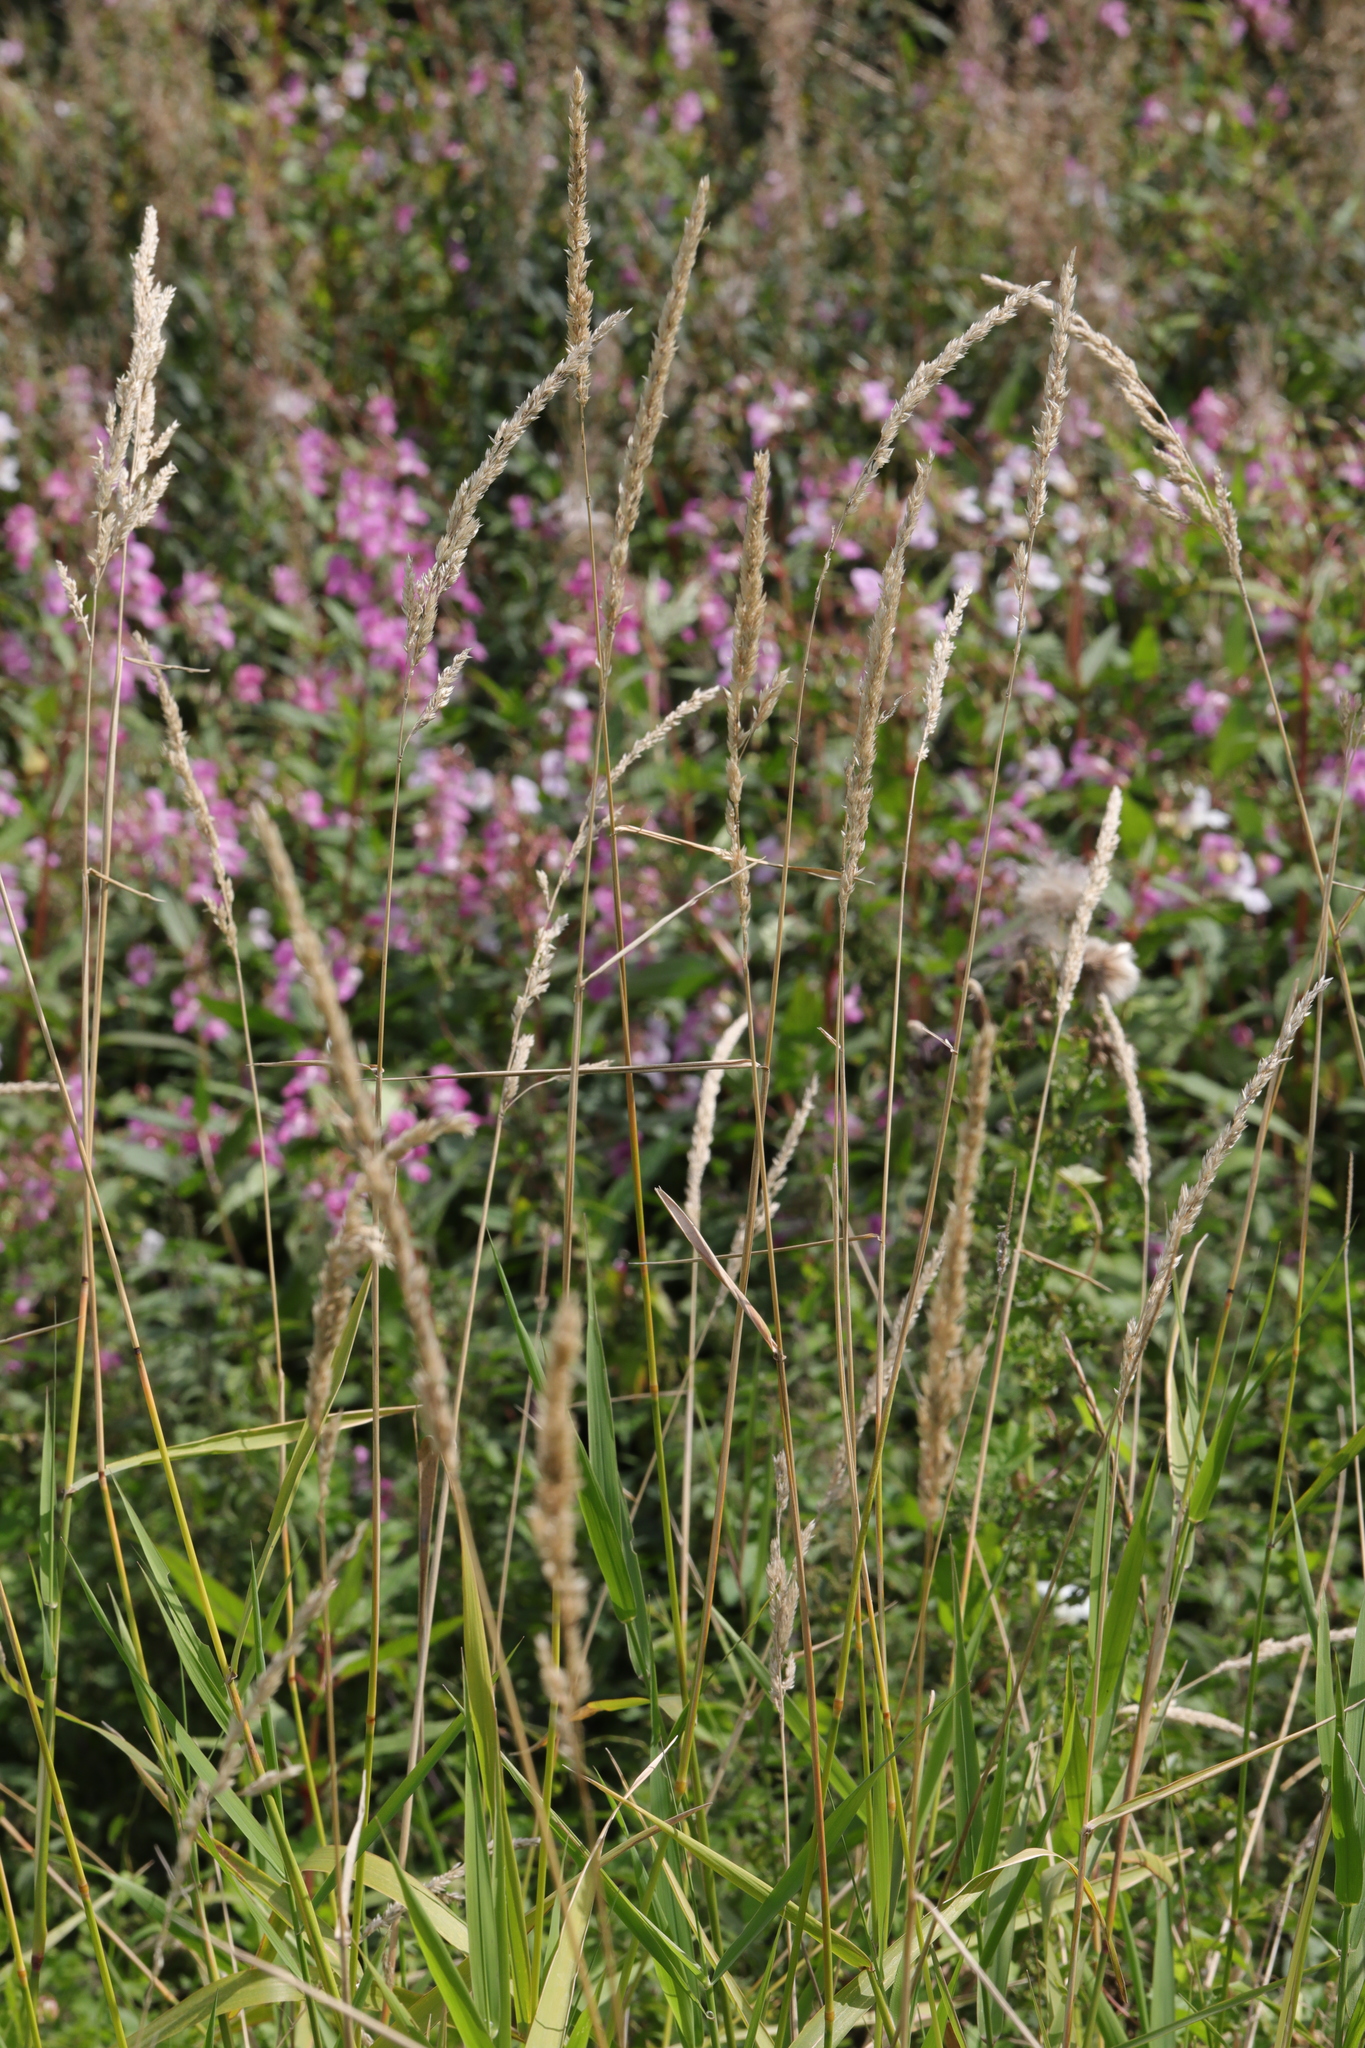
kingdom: Plantae
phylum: Tracheophyta
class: Liliopsida
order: Poales
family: Poaceae
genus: Phalaris
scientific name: Phalaris arundinacea
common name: Reed canary-grass
